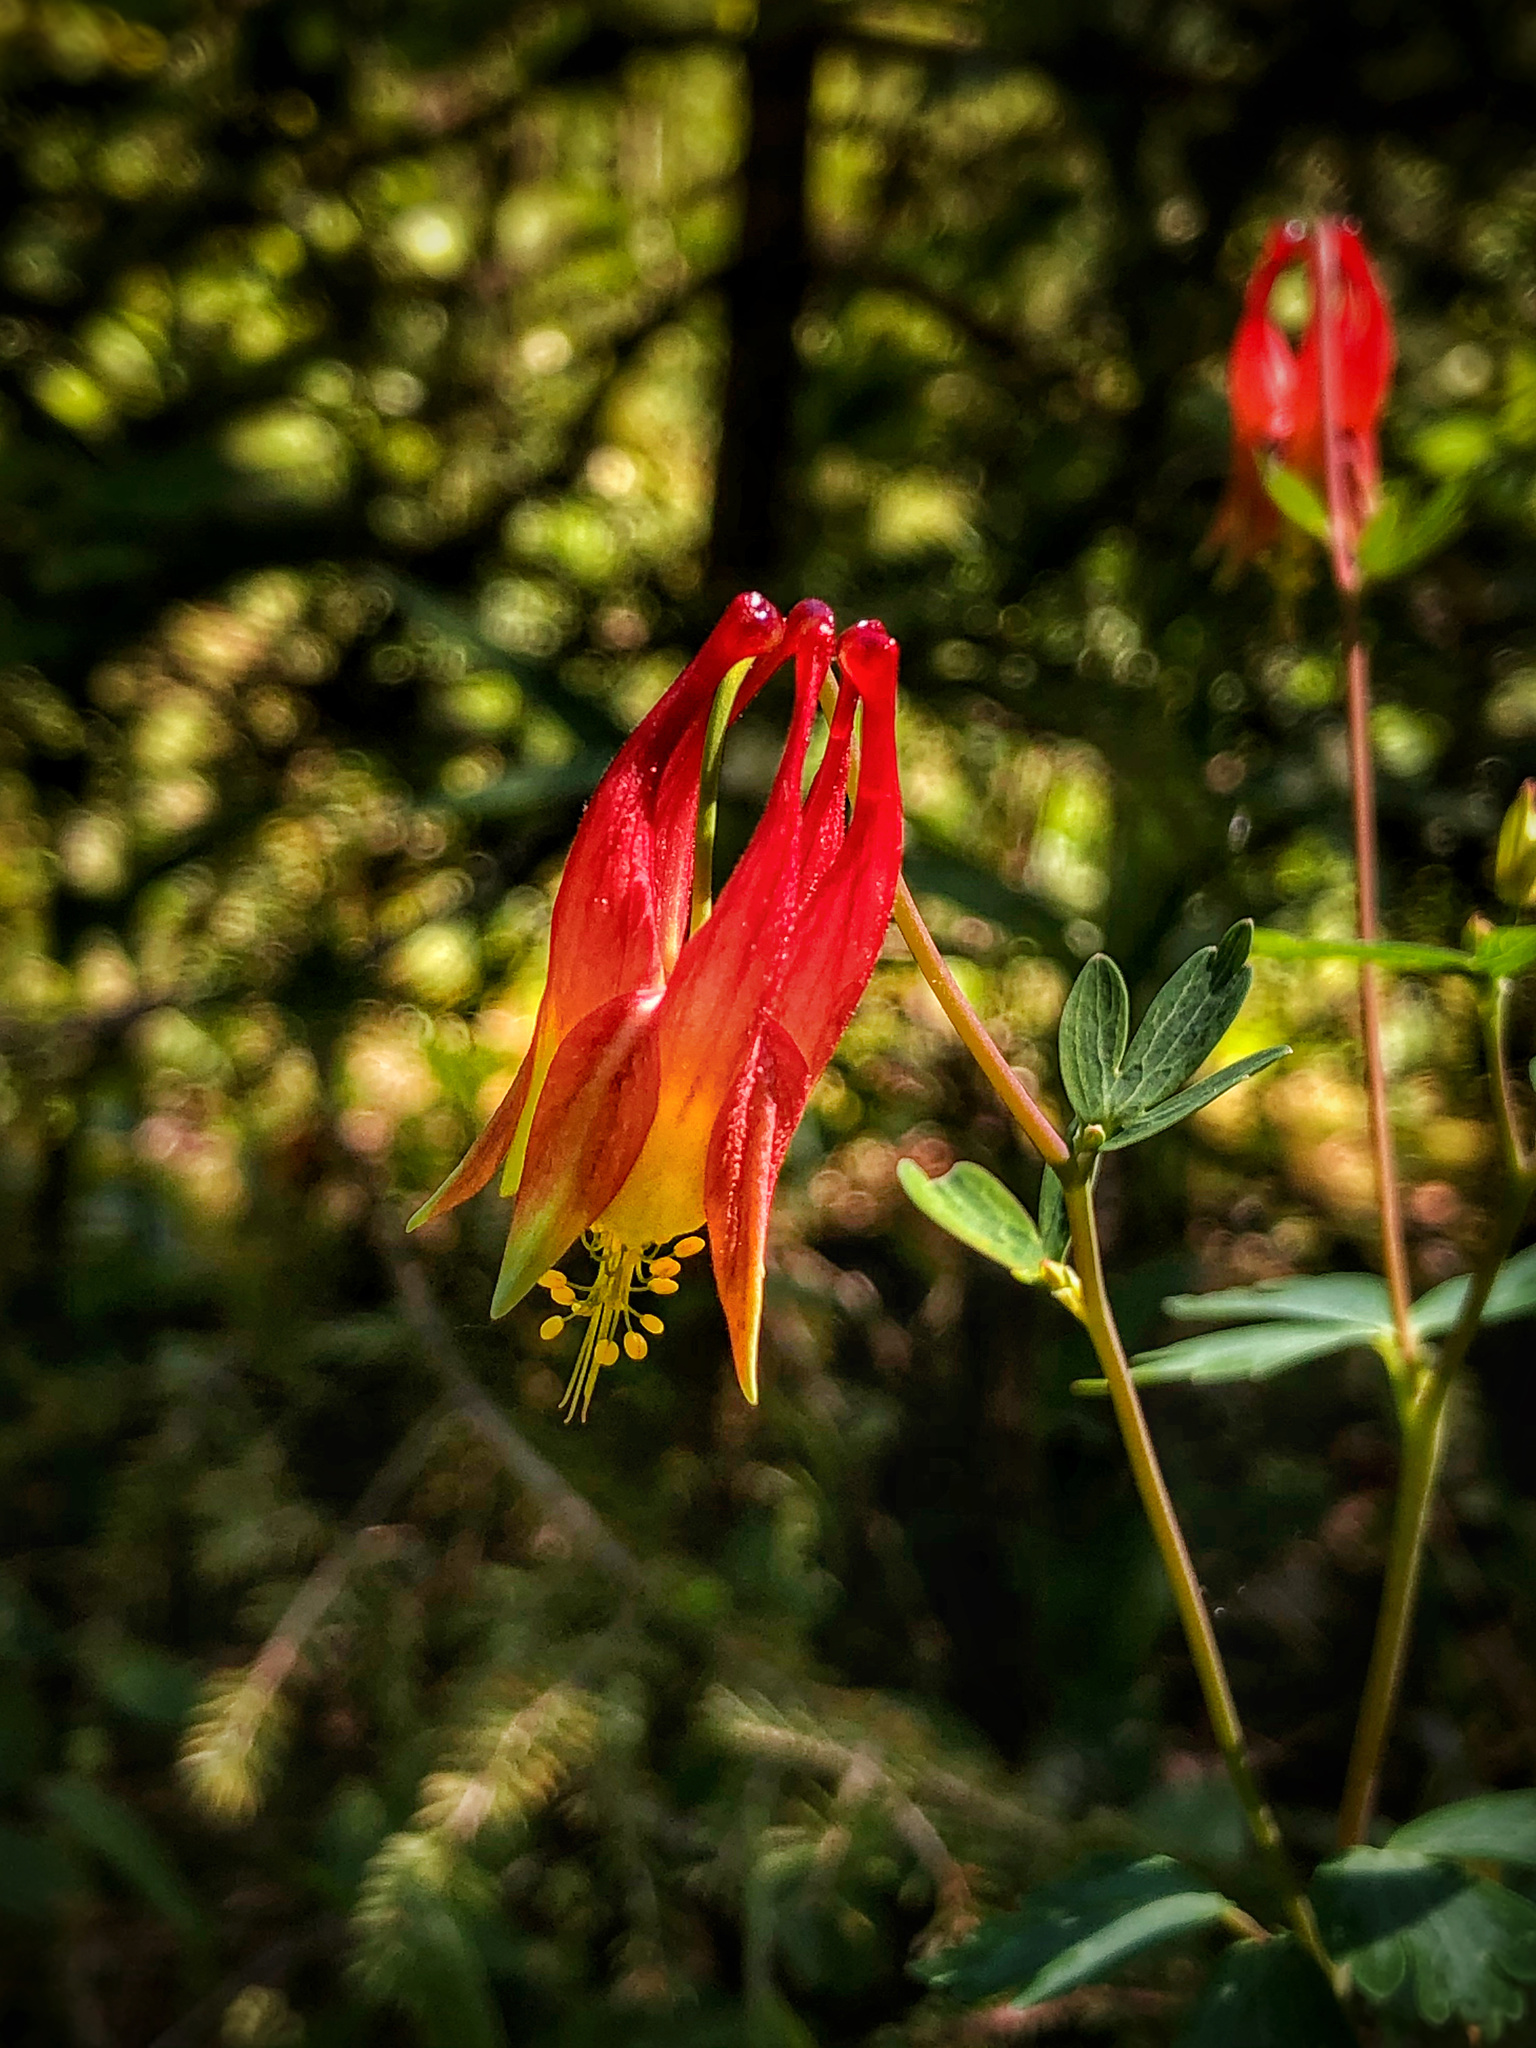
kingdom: Plantae
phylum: Tracheophyta
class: Magnoliopsida
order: Ranunculales
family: Ranunculaceae
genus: Aquilegia
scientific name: Aquilegia canadensis
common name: American columbine
